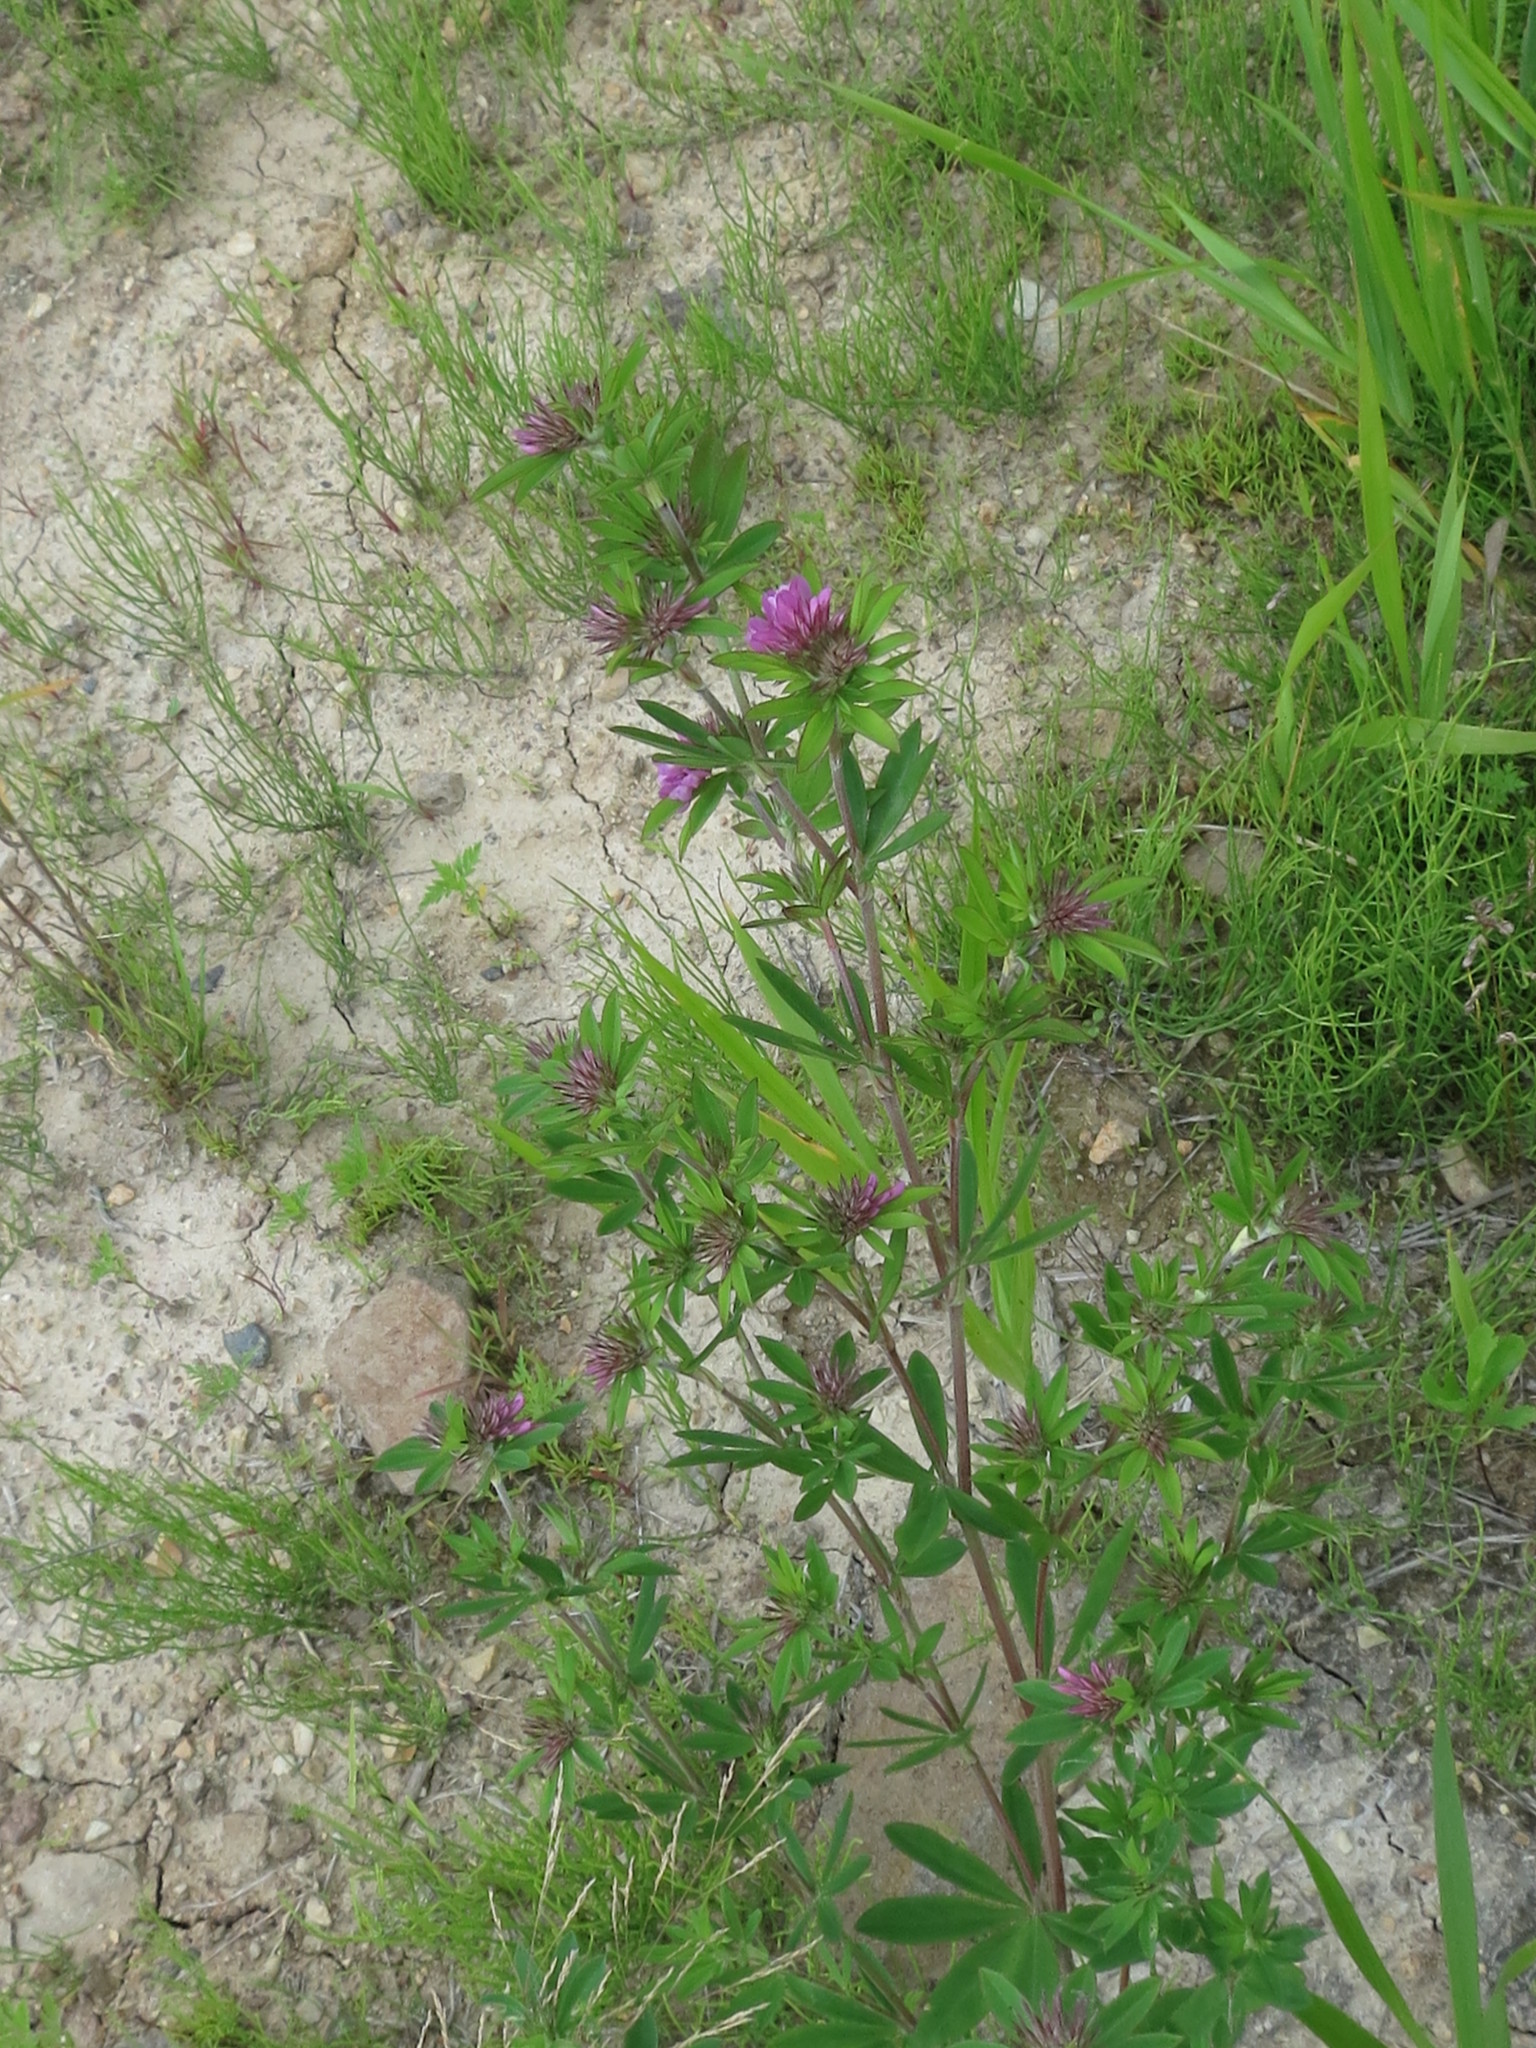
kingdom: Plantae
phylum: Tracheophyta
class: Magnoliopsida
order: Fabales
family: Fabaceae
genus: Trifolium
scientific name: Trifolium lupinaster
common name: Lupine clover
